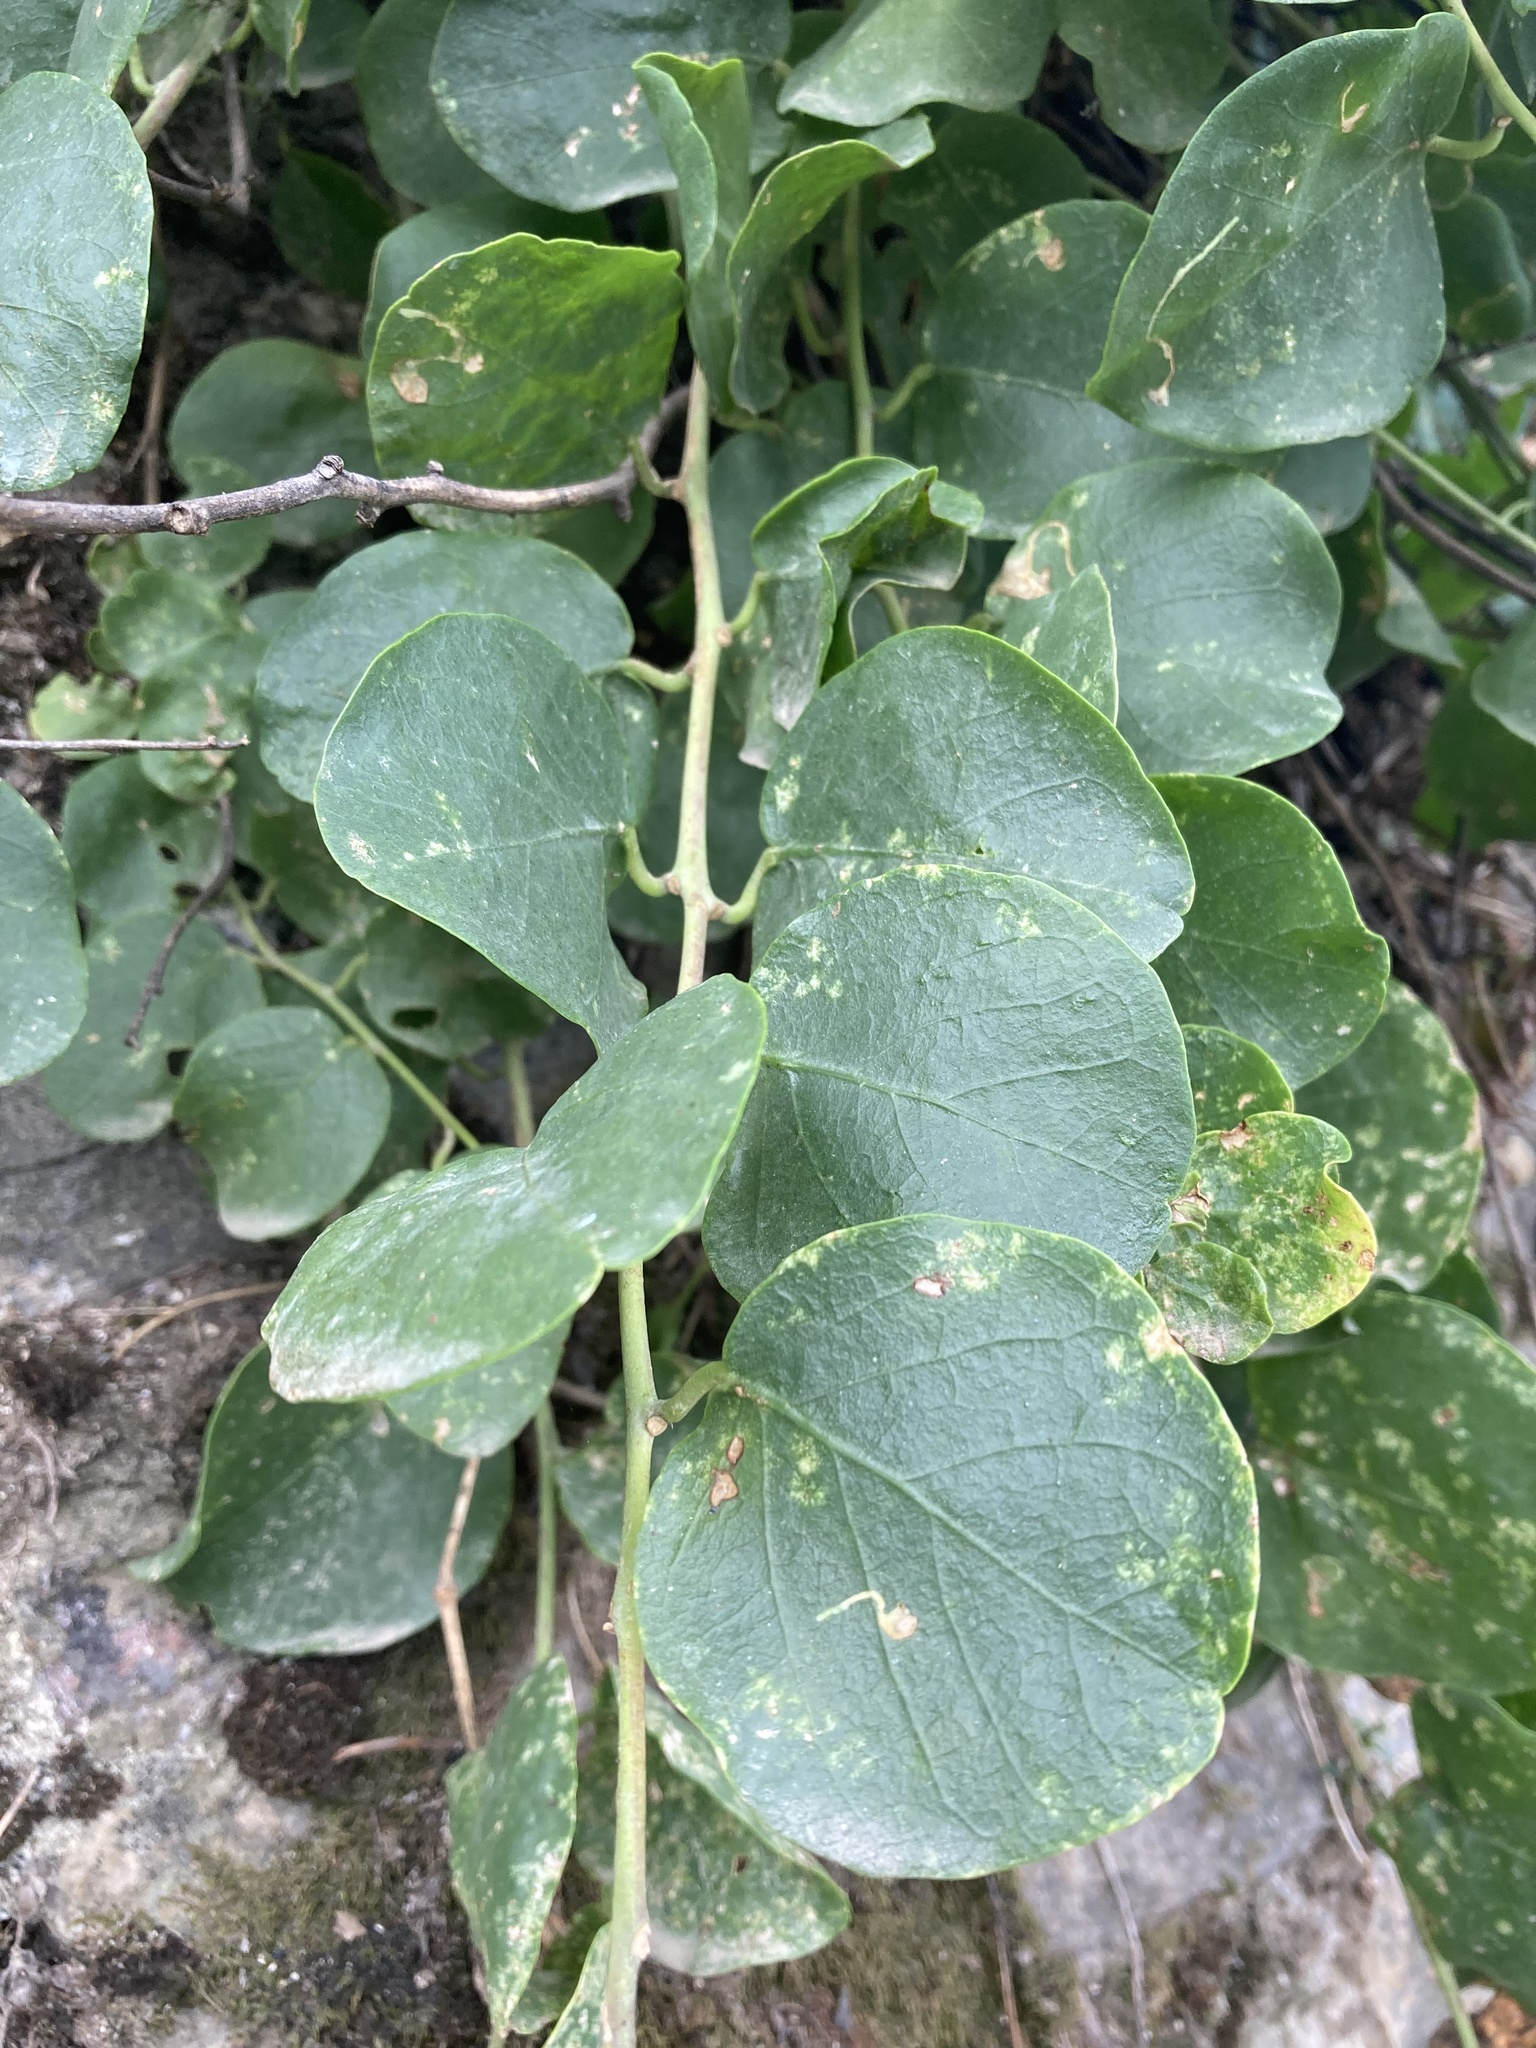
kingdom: Plantae
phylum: Tracheophyta
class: Magnoliopsida
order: Brassicales
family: Capparaceae
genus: Capparis
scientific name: Capparis orientalis
